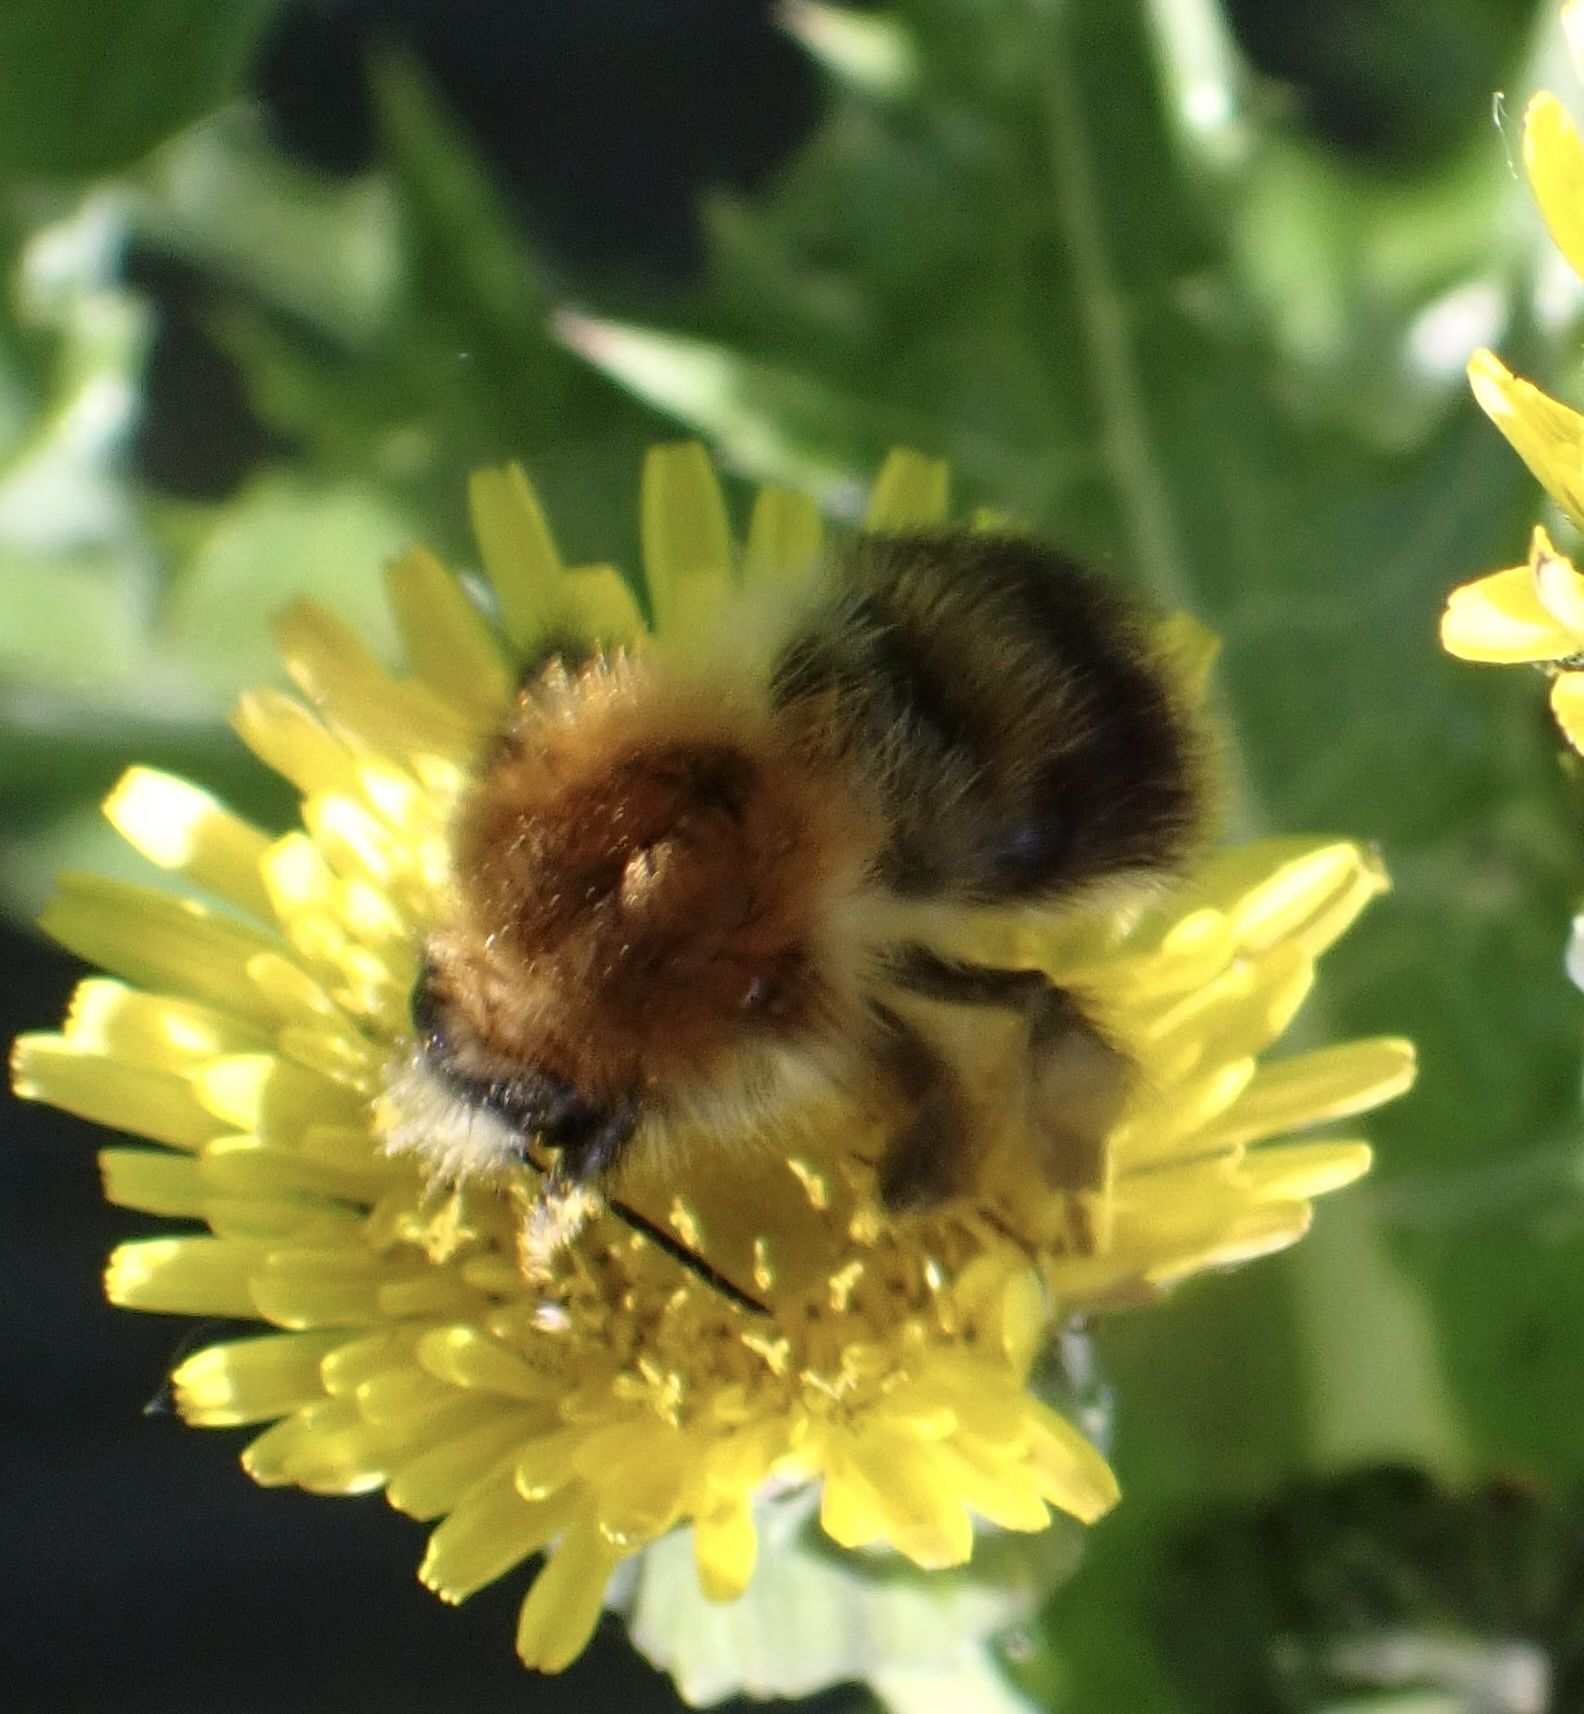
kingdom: Animalia
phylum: Arthropoda
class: Insecta
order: Hymenoptera
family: Apidae
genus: Bombus
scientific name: Bombus pascuorum
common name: Common carder bee
